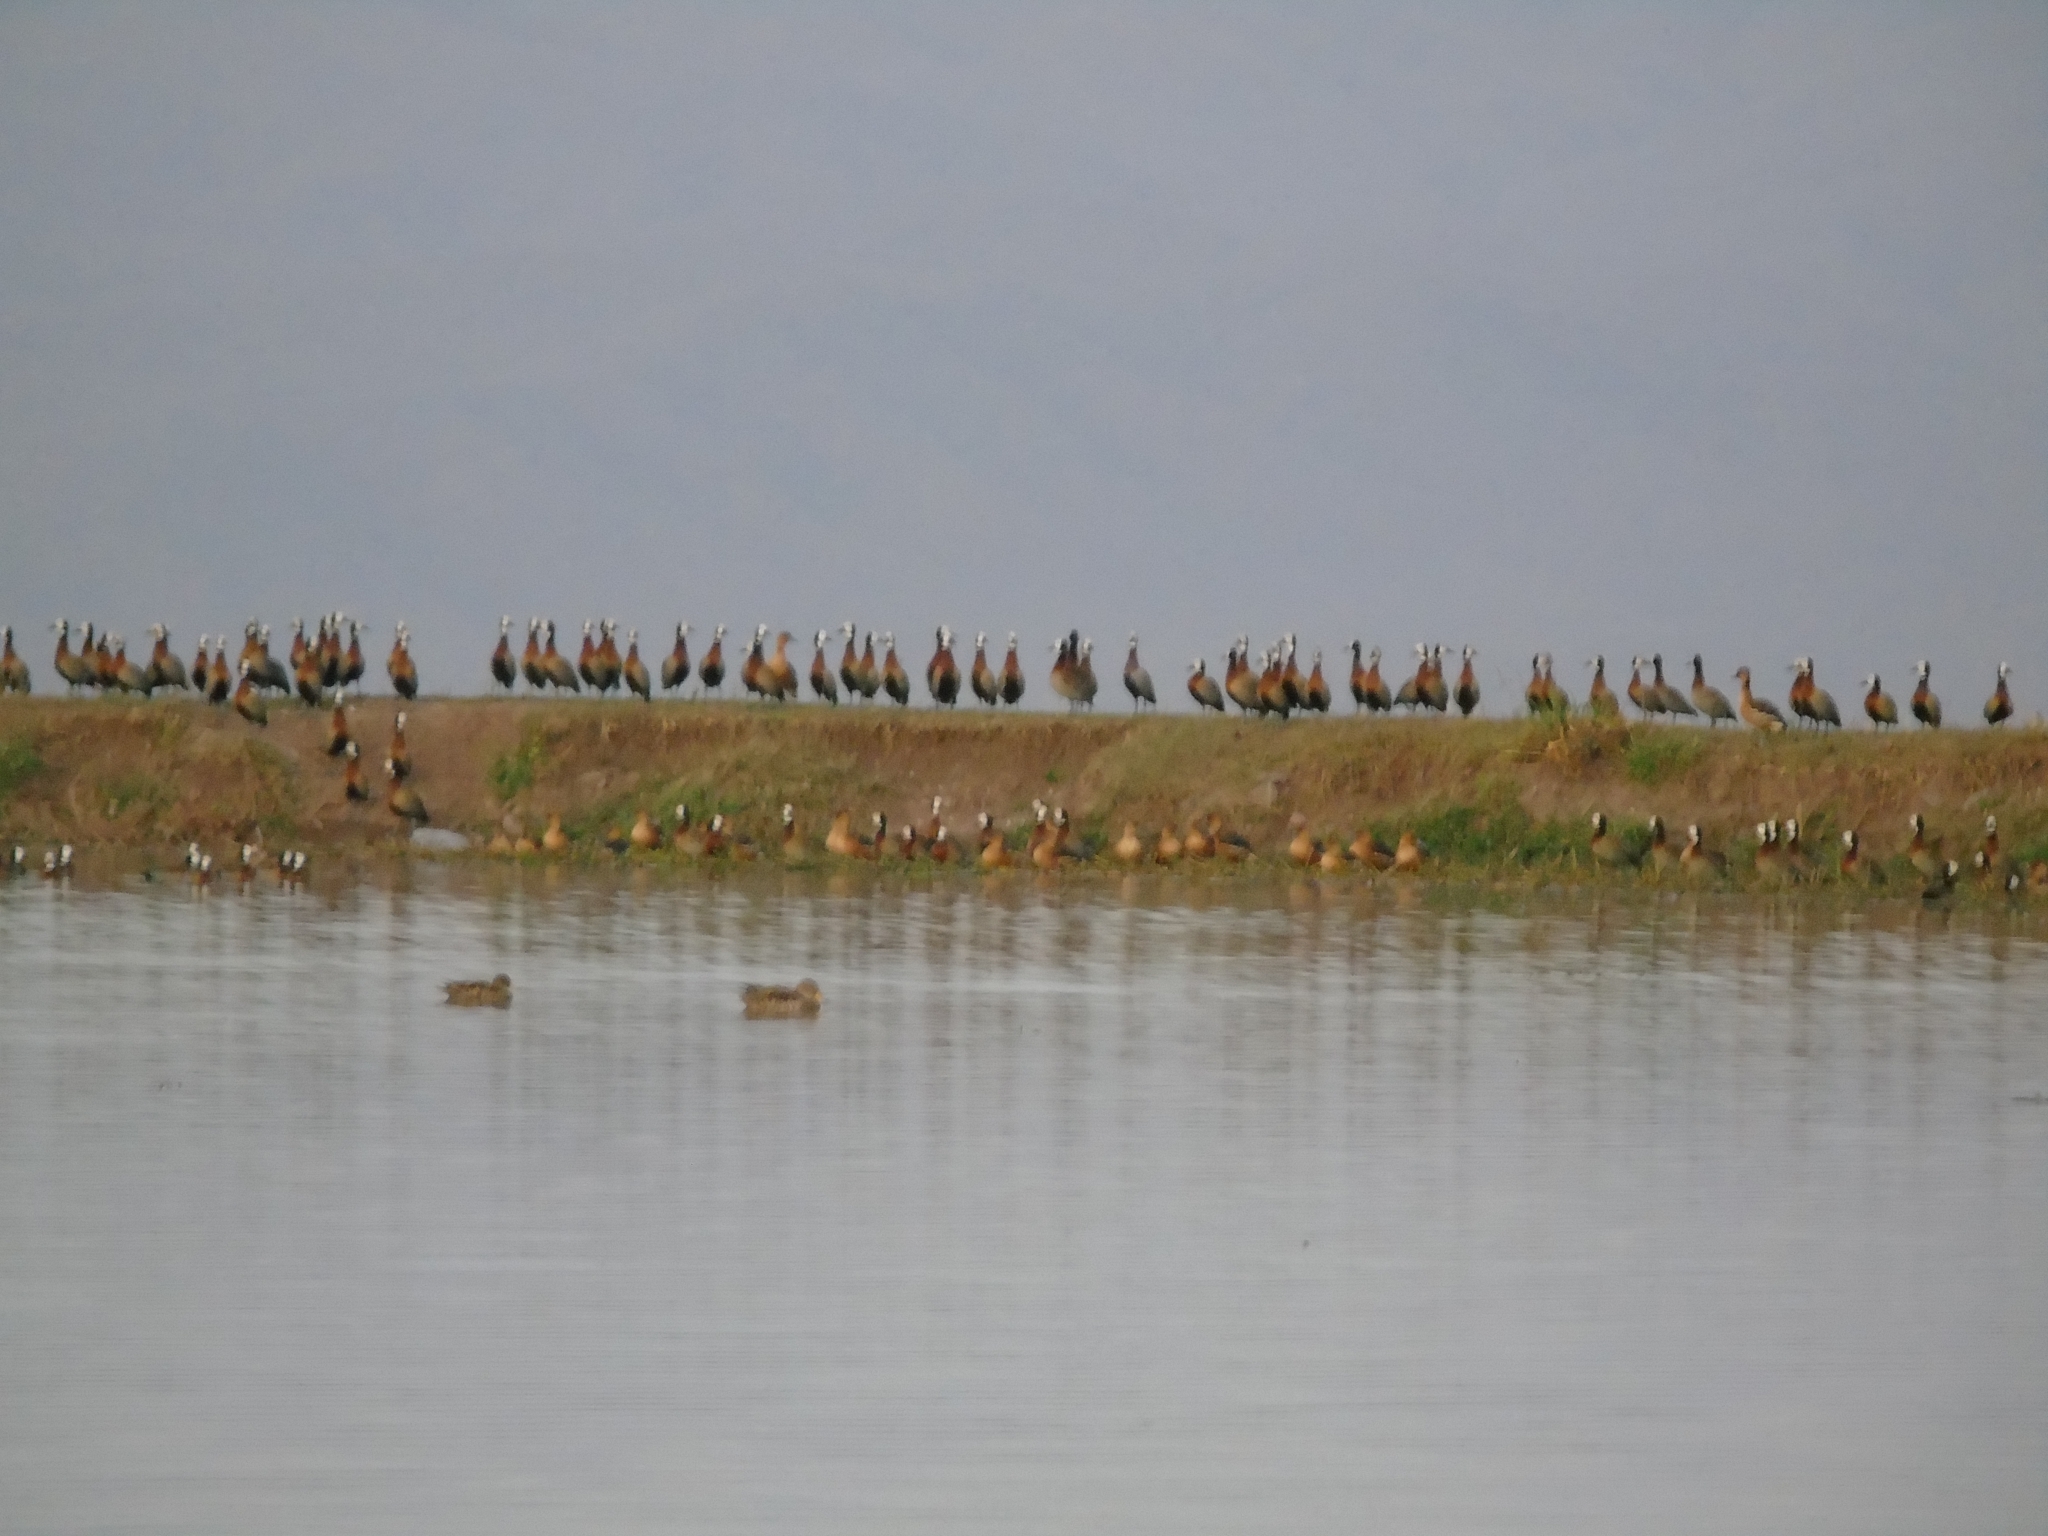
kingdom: Animalia
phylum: Chordata
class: Aves
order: Anseriformes
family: Anatidae
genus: Dendrocygna
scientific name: Dendrocygna bicolor
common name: Fulvous whistling duck
